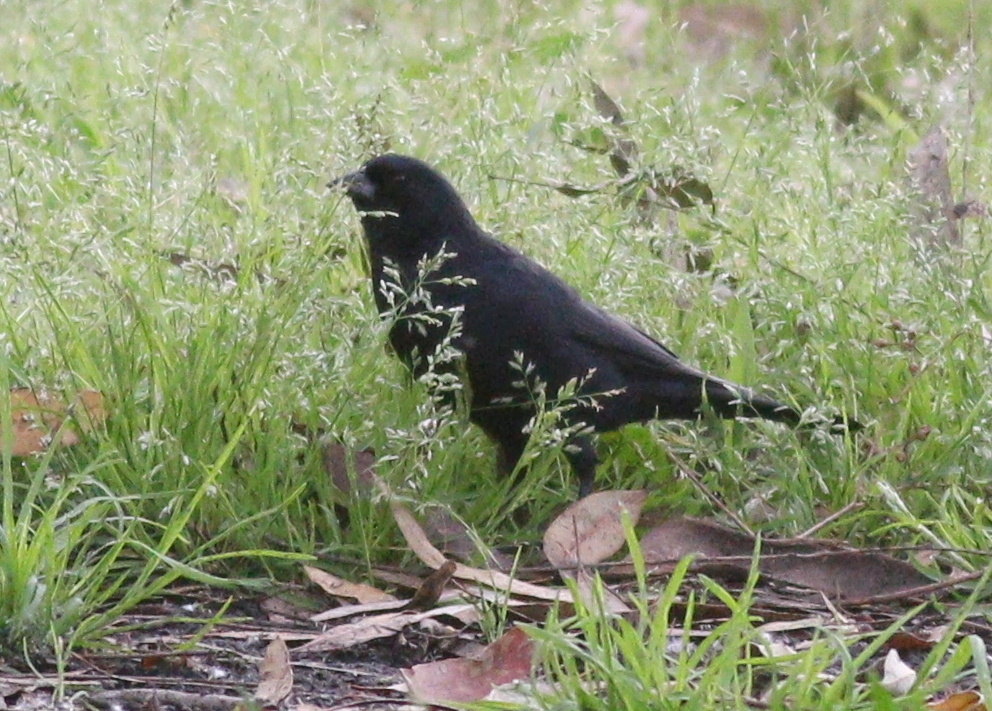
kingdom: Animalia
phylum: Chordata
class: Aves
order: Passeriformes
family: Icteridae
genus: Molothrus
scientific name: Molothrus rufoaxillaris
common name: Screaming cowbird
